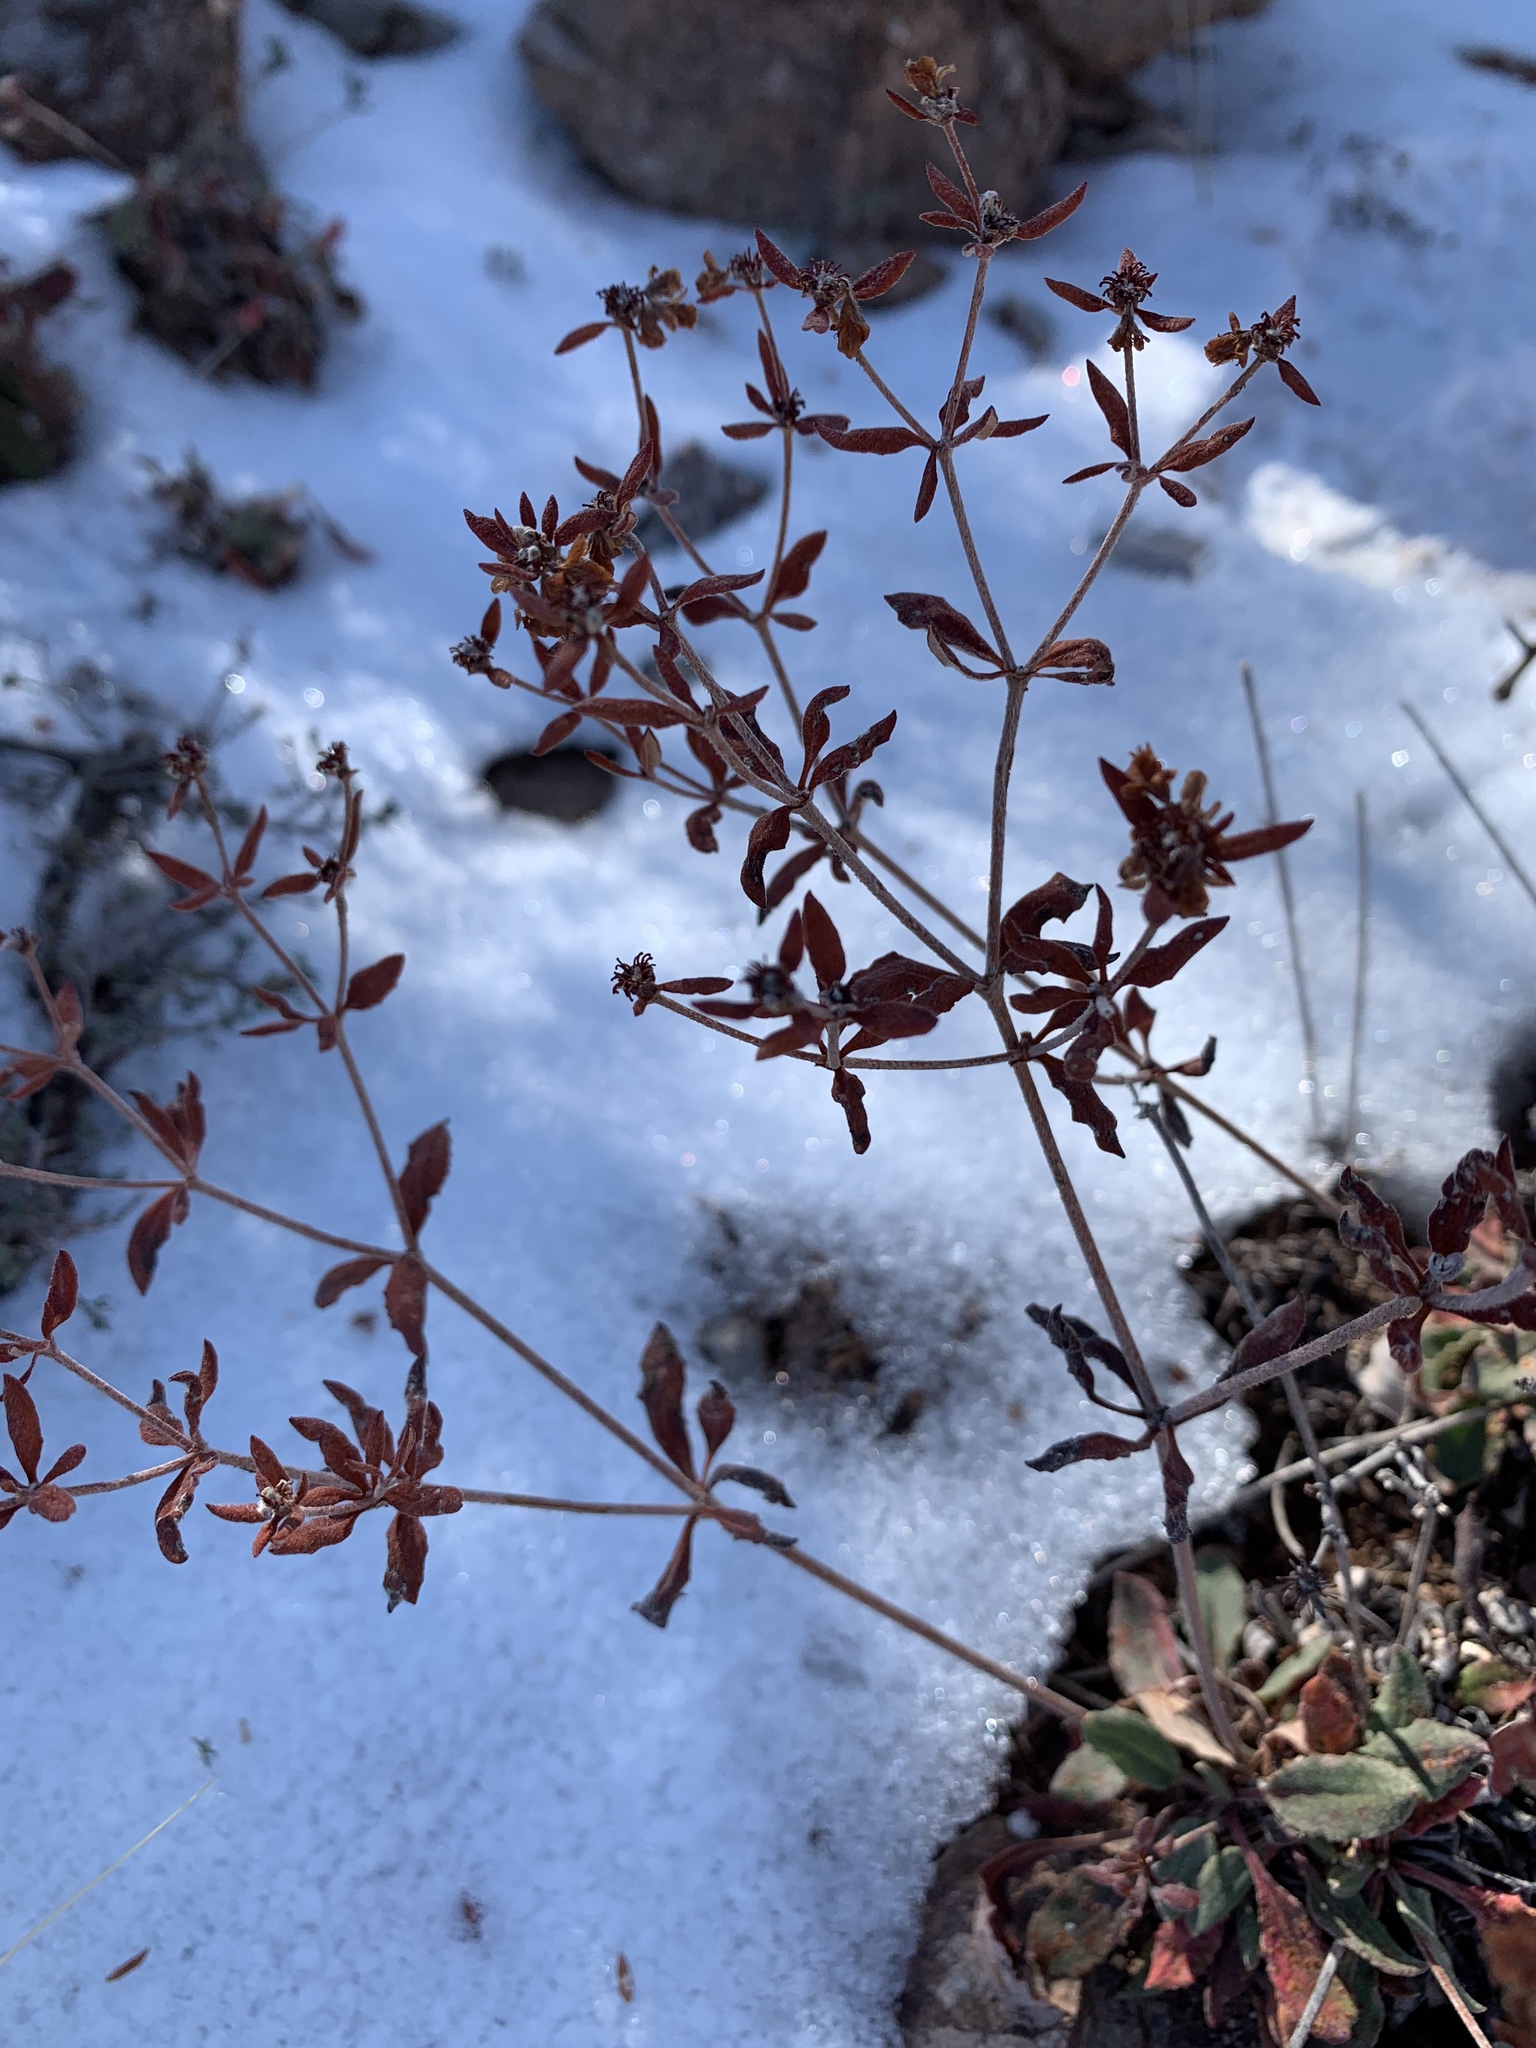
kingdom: Plantae
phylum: Tracheophyta
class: Magnoliopsida
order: Caryophyllales
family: Polygonaceae
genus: Eriogonum
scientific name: Eriogonum wootonii
